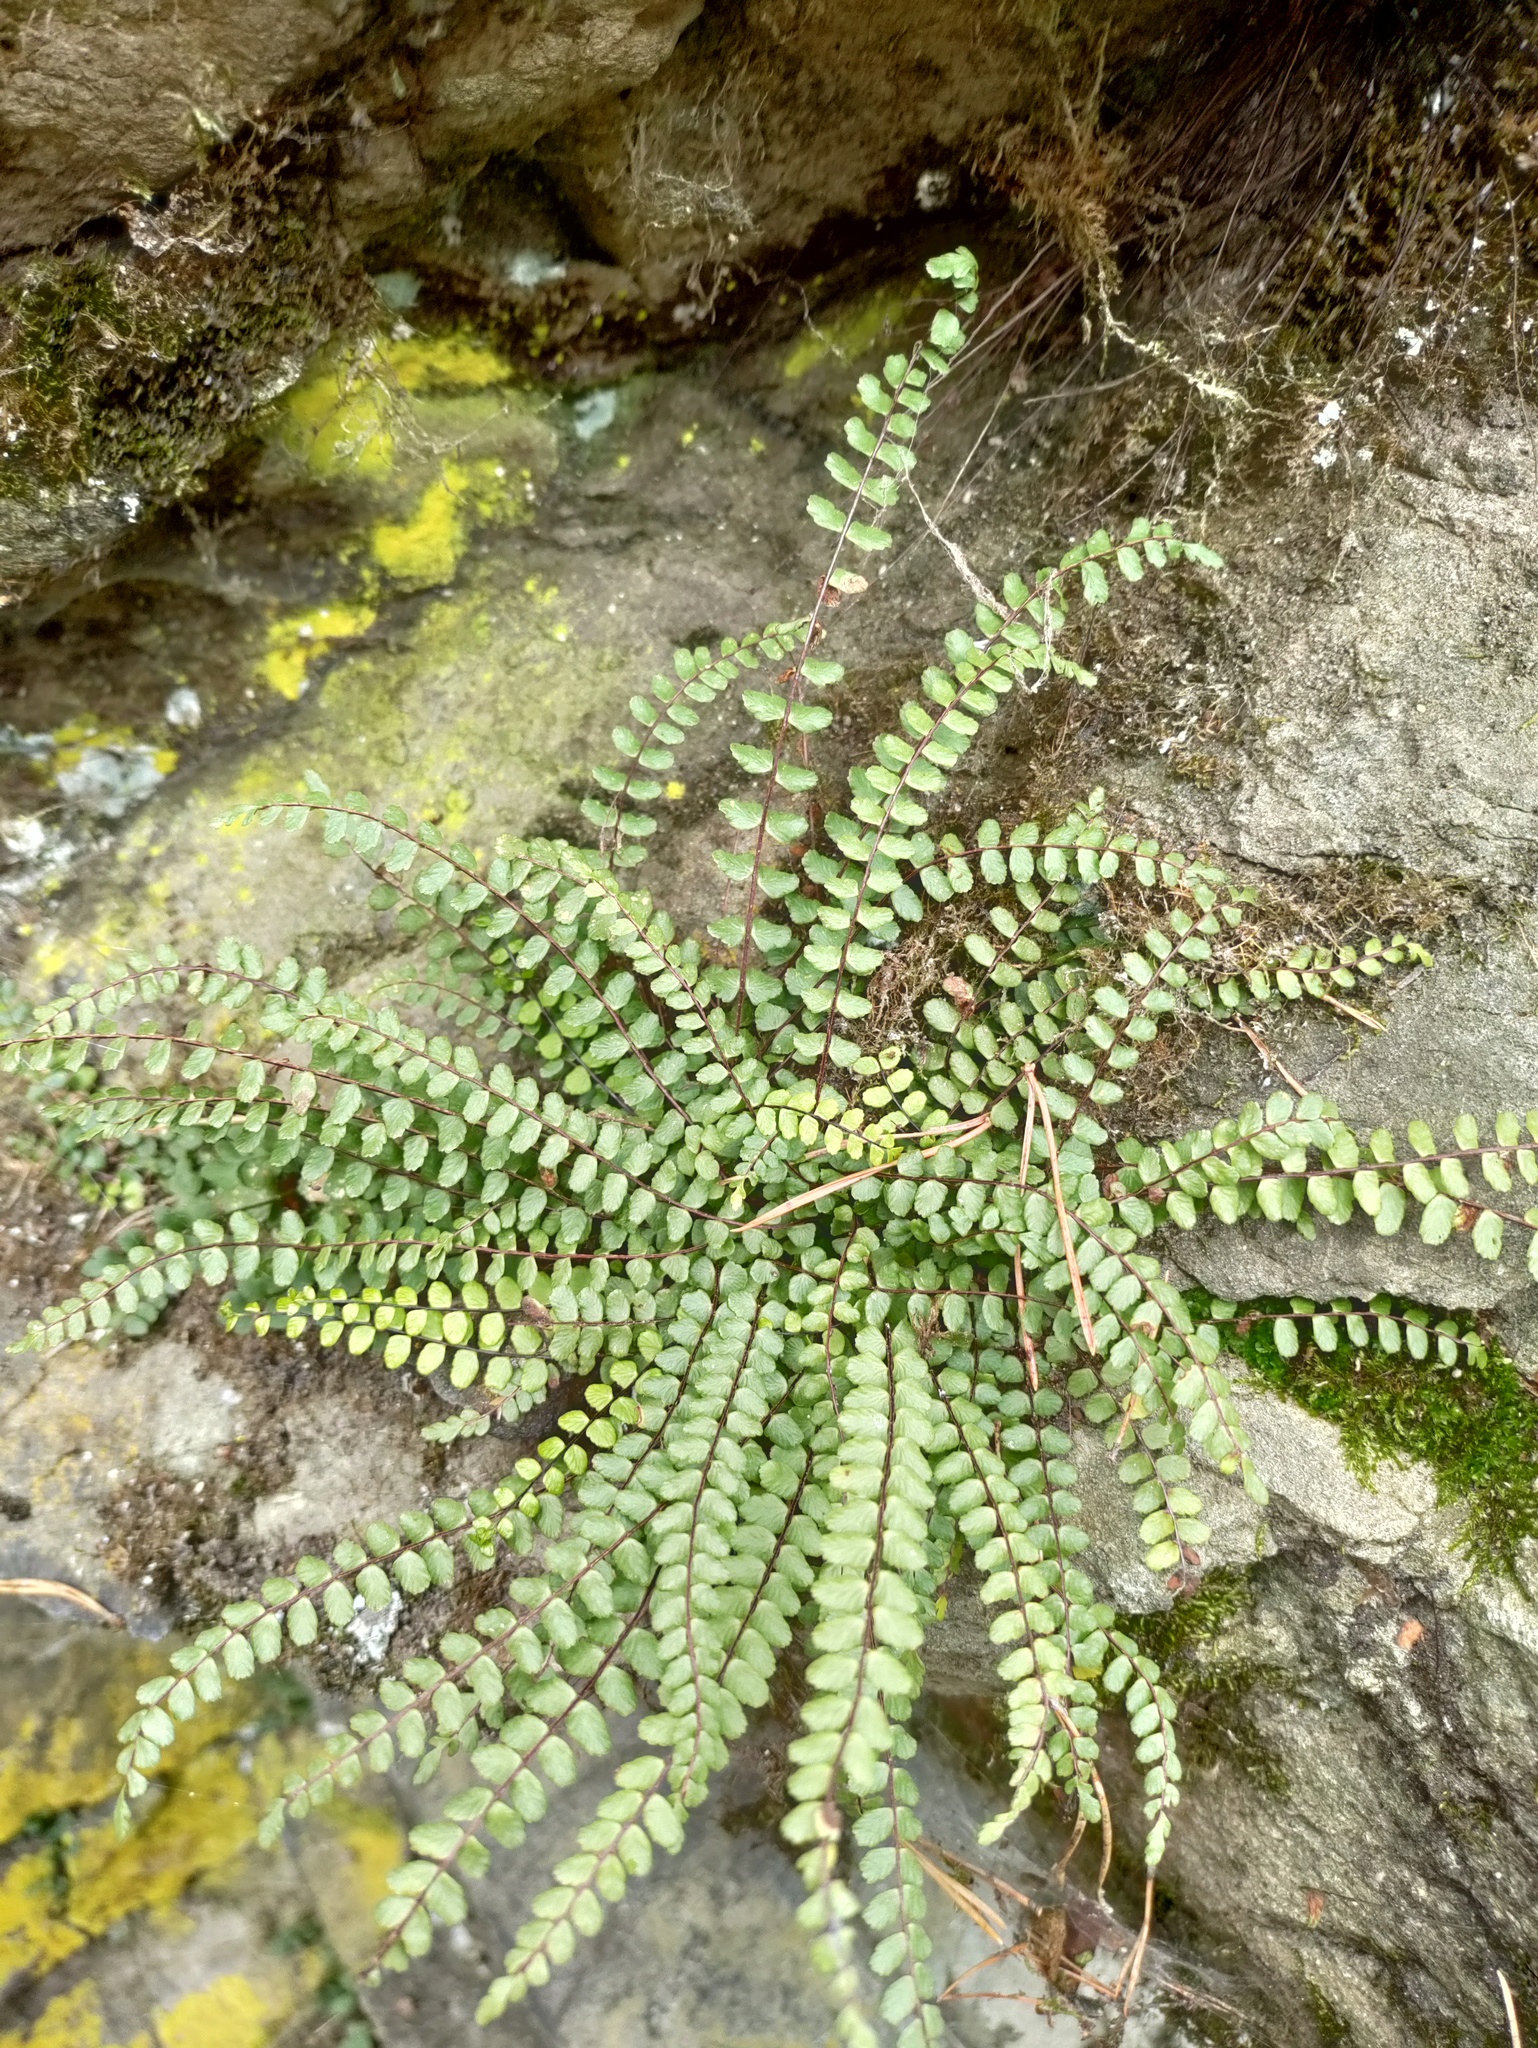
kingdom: Plantae
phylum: Tracheophyta
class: Polypodiopsida
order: Polypodiales
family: Aspleniaceae
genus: Asplenium
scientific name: Asplenium trichomanes
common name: Maidenhair spleenwort
